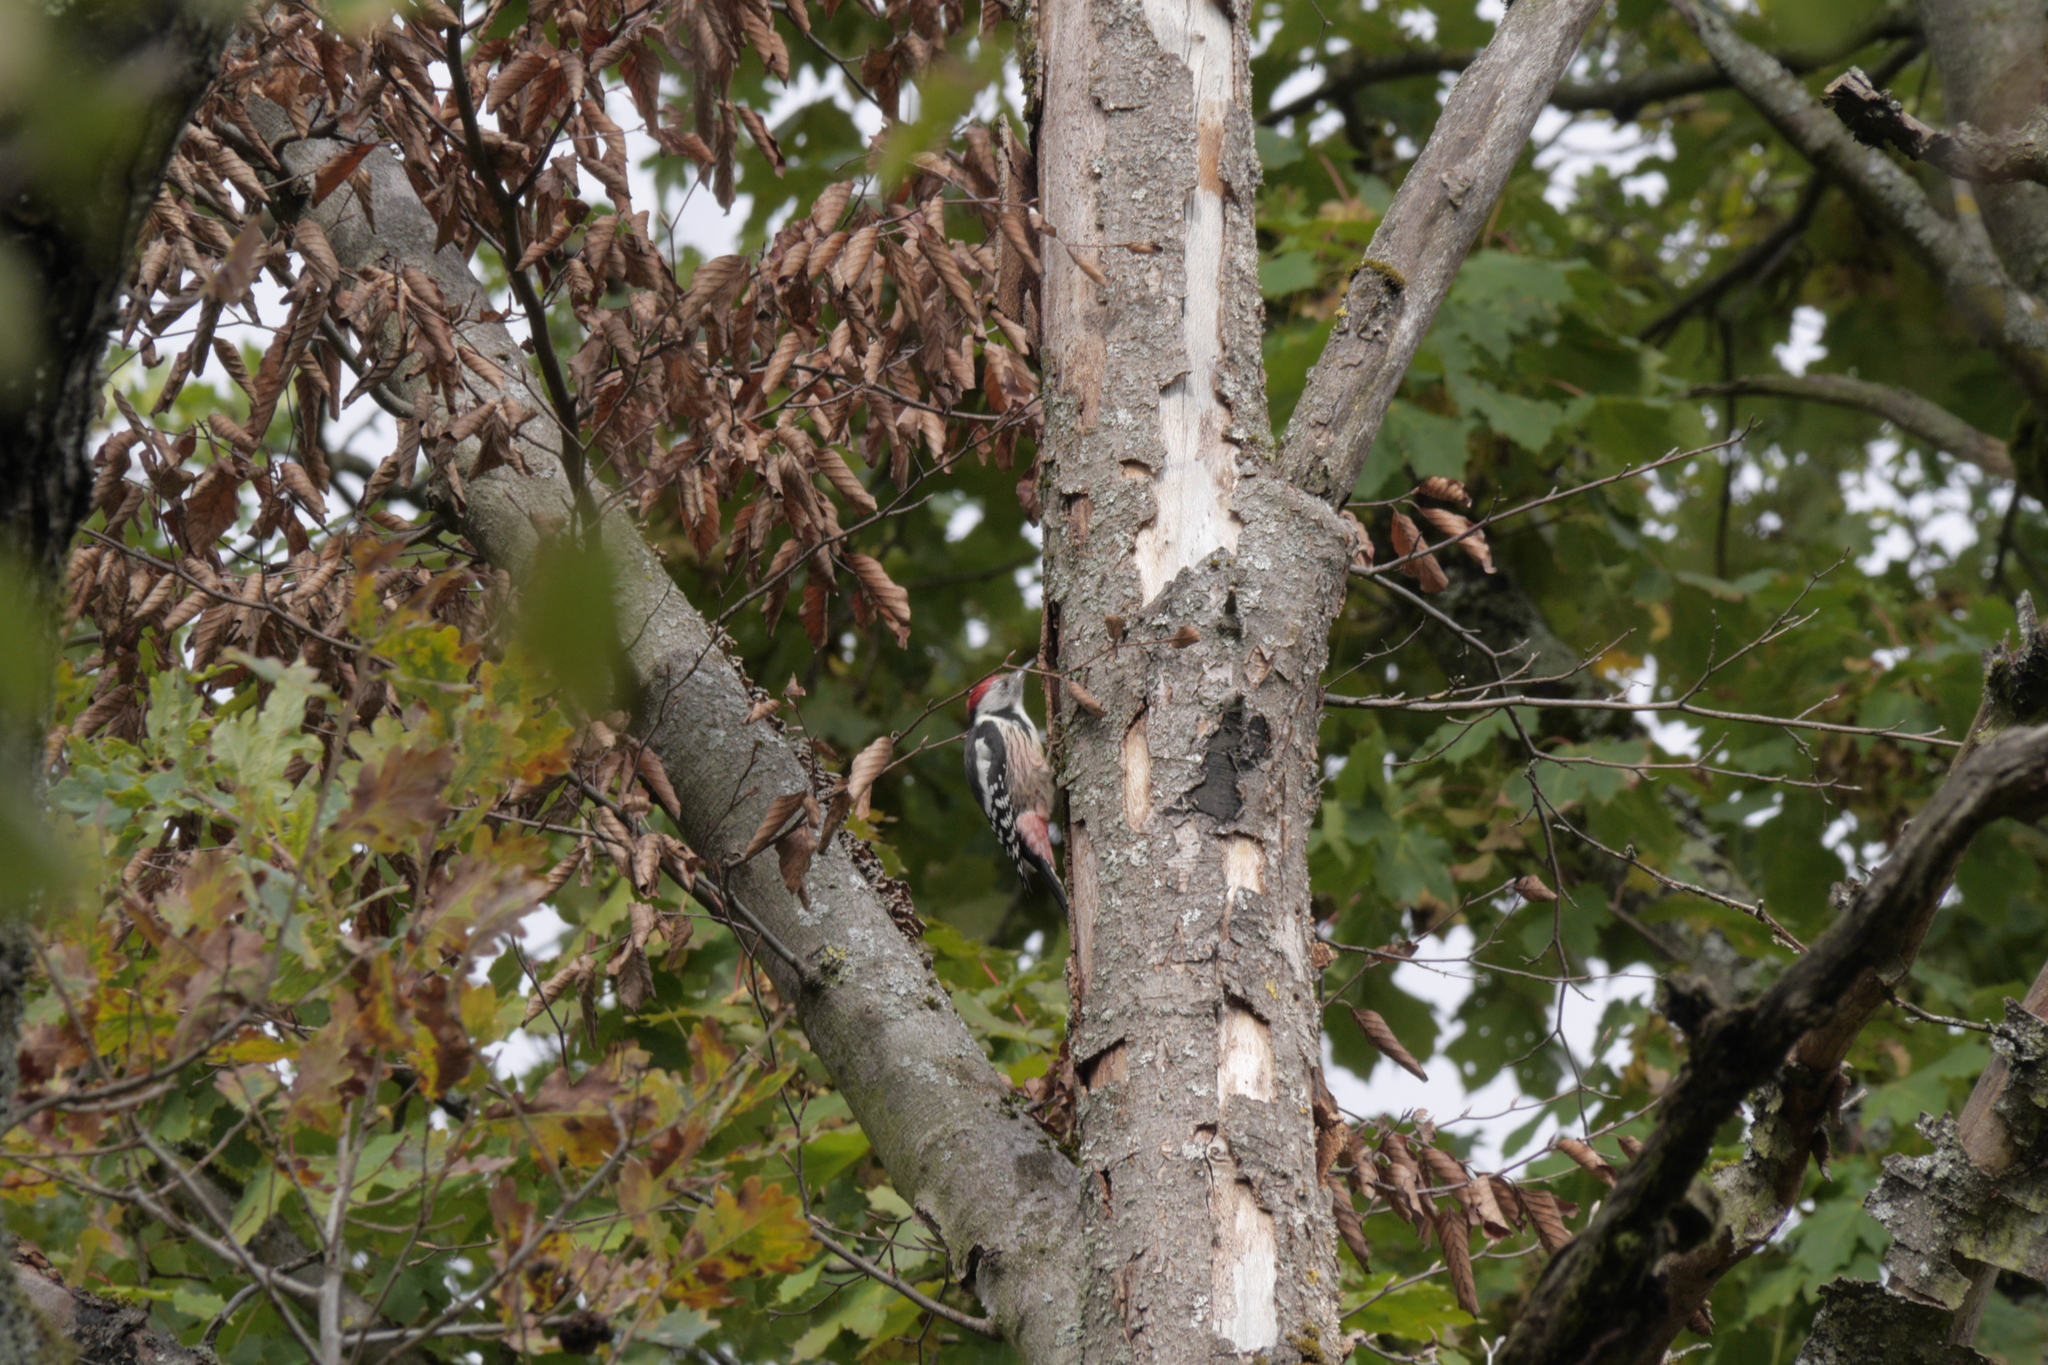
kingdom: Animalia
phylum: Chordata
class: Aves
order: Piciformes
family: Picidae
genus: Dendrocoptes
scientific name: Dendrocoptes medius
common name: Middle spotted woodpecker
